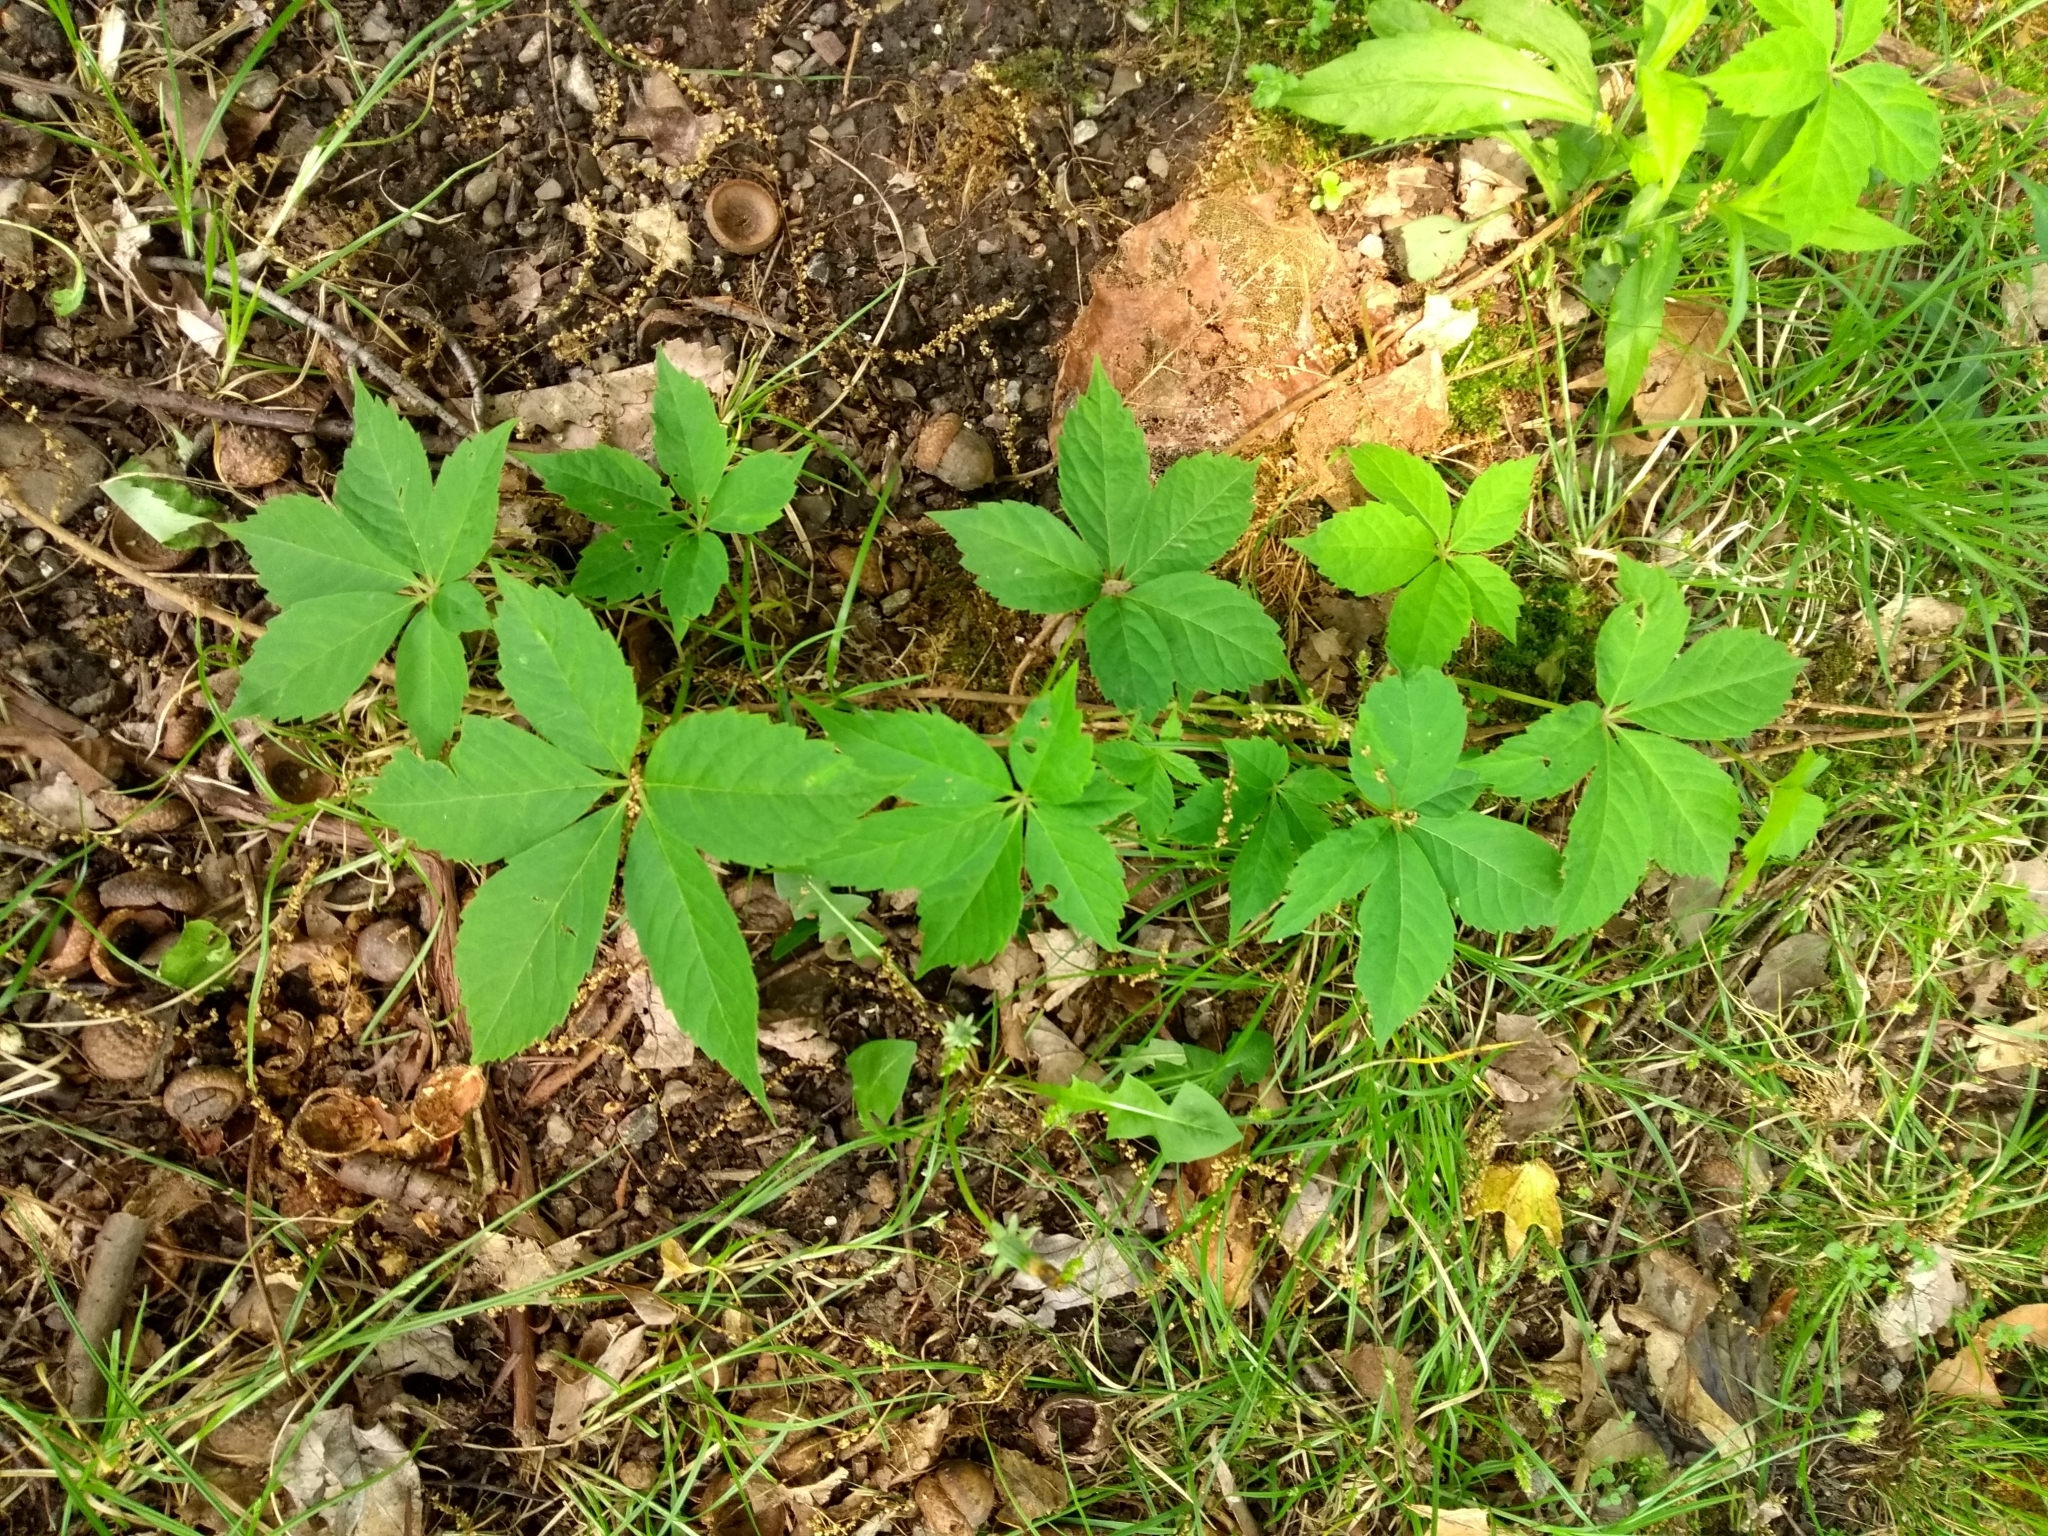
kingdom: Plantae
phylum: Tracheophyta
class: Magnoliopsida
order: Vitales
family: Vitaceae
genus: Parthenocissus
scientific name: Parthenocissus quinquefolia
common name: Virginia-creeper
